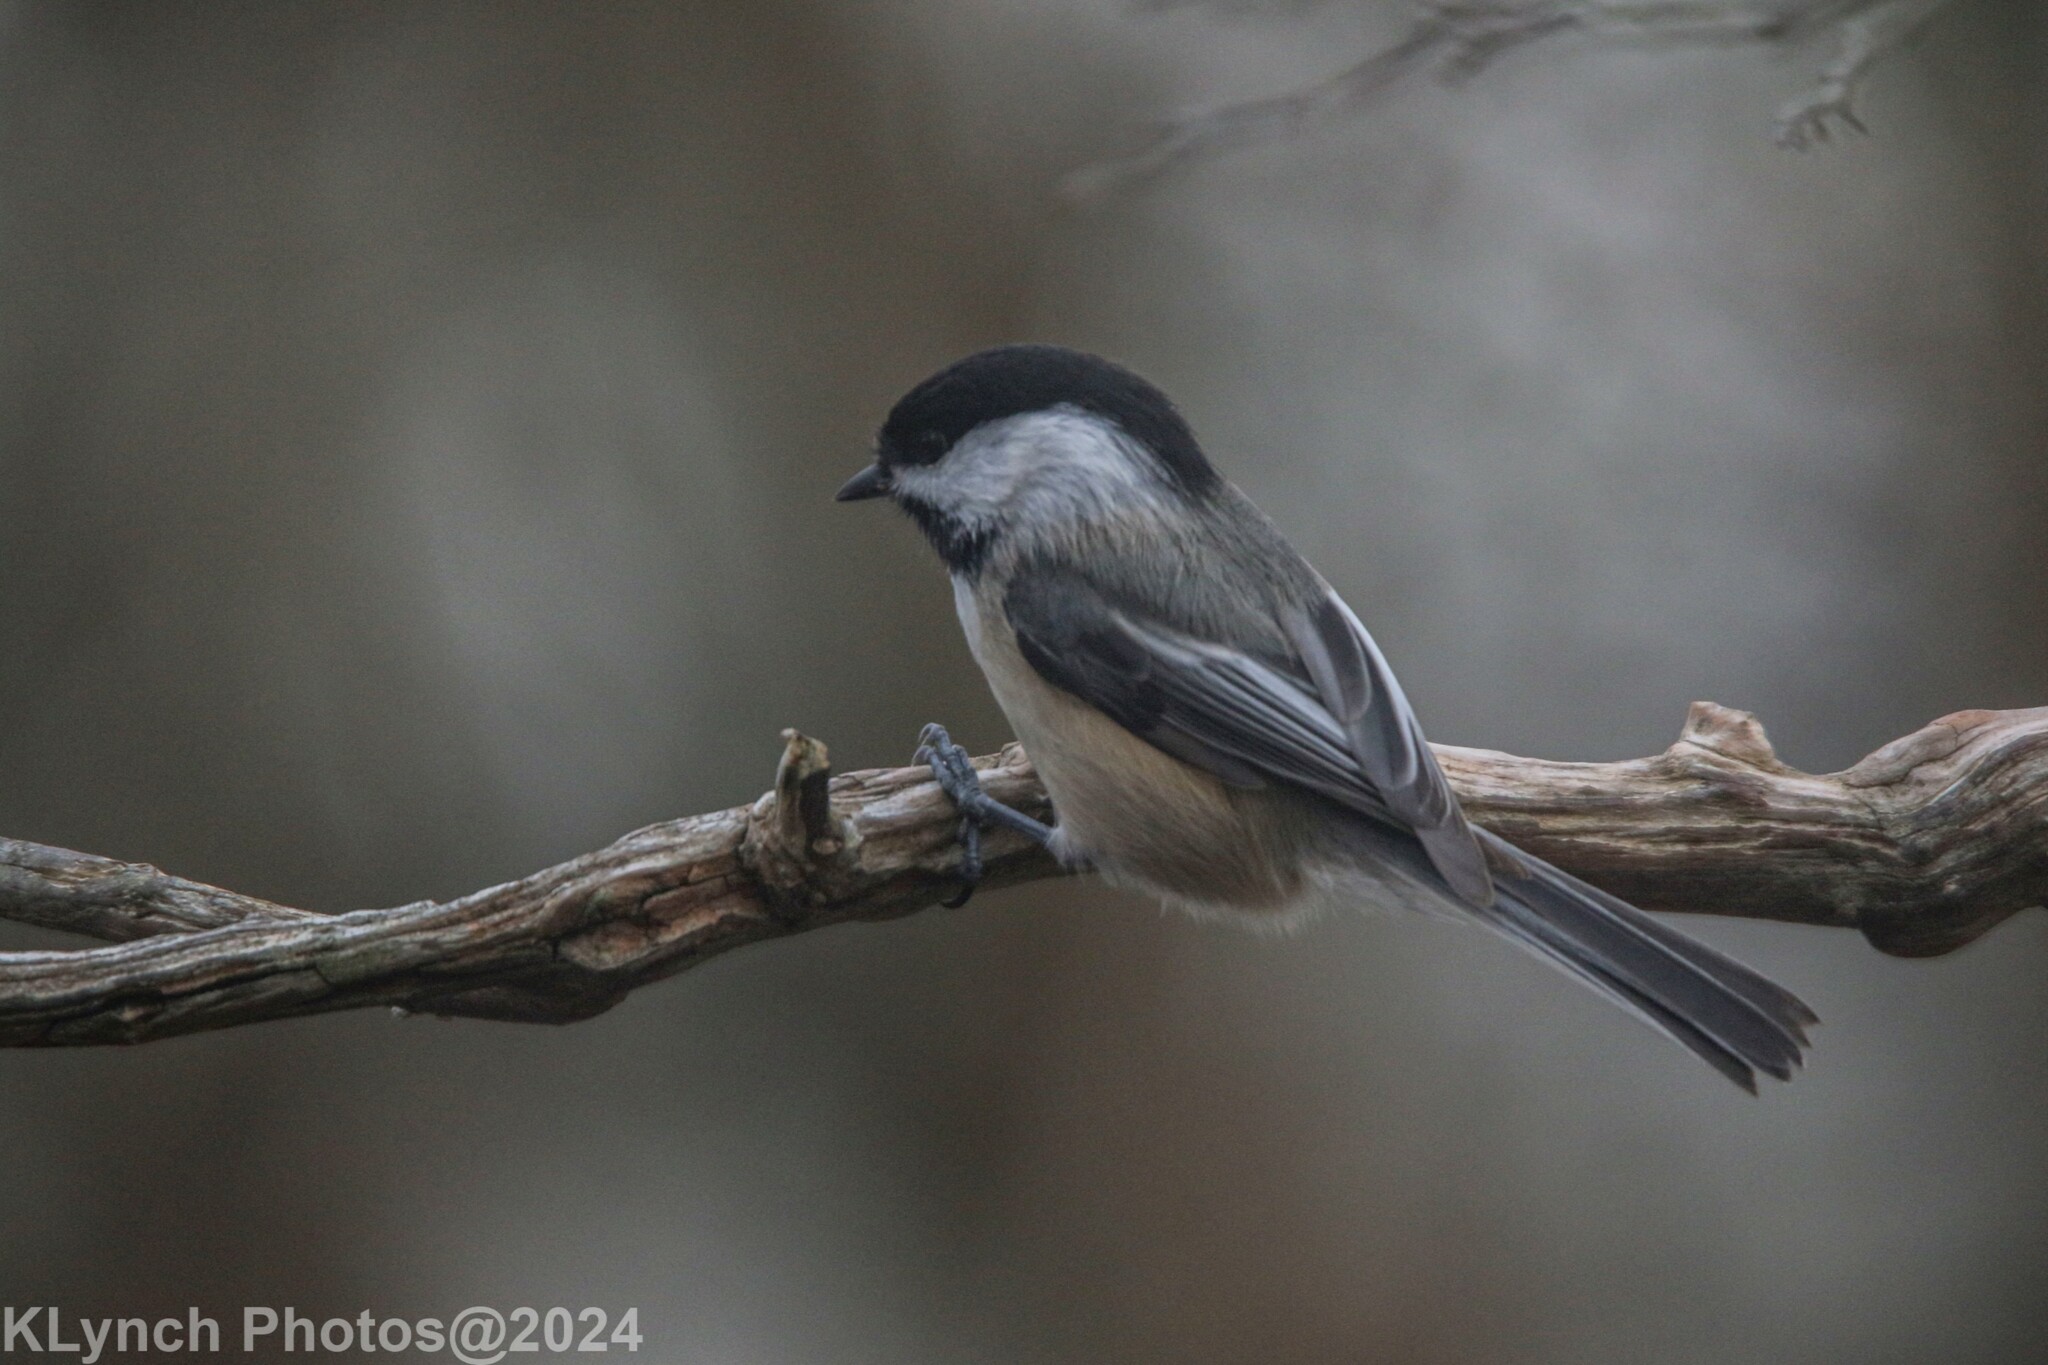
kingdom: Animalia
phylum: Chordata
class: Aves
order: Passeriformes
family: Paridae
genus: Poecile
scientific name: Poecile atricapillus
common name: Black-capped chickadee
